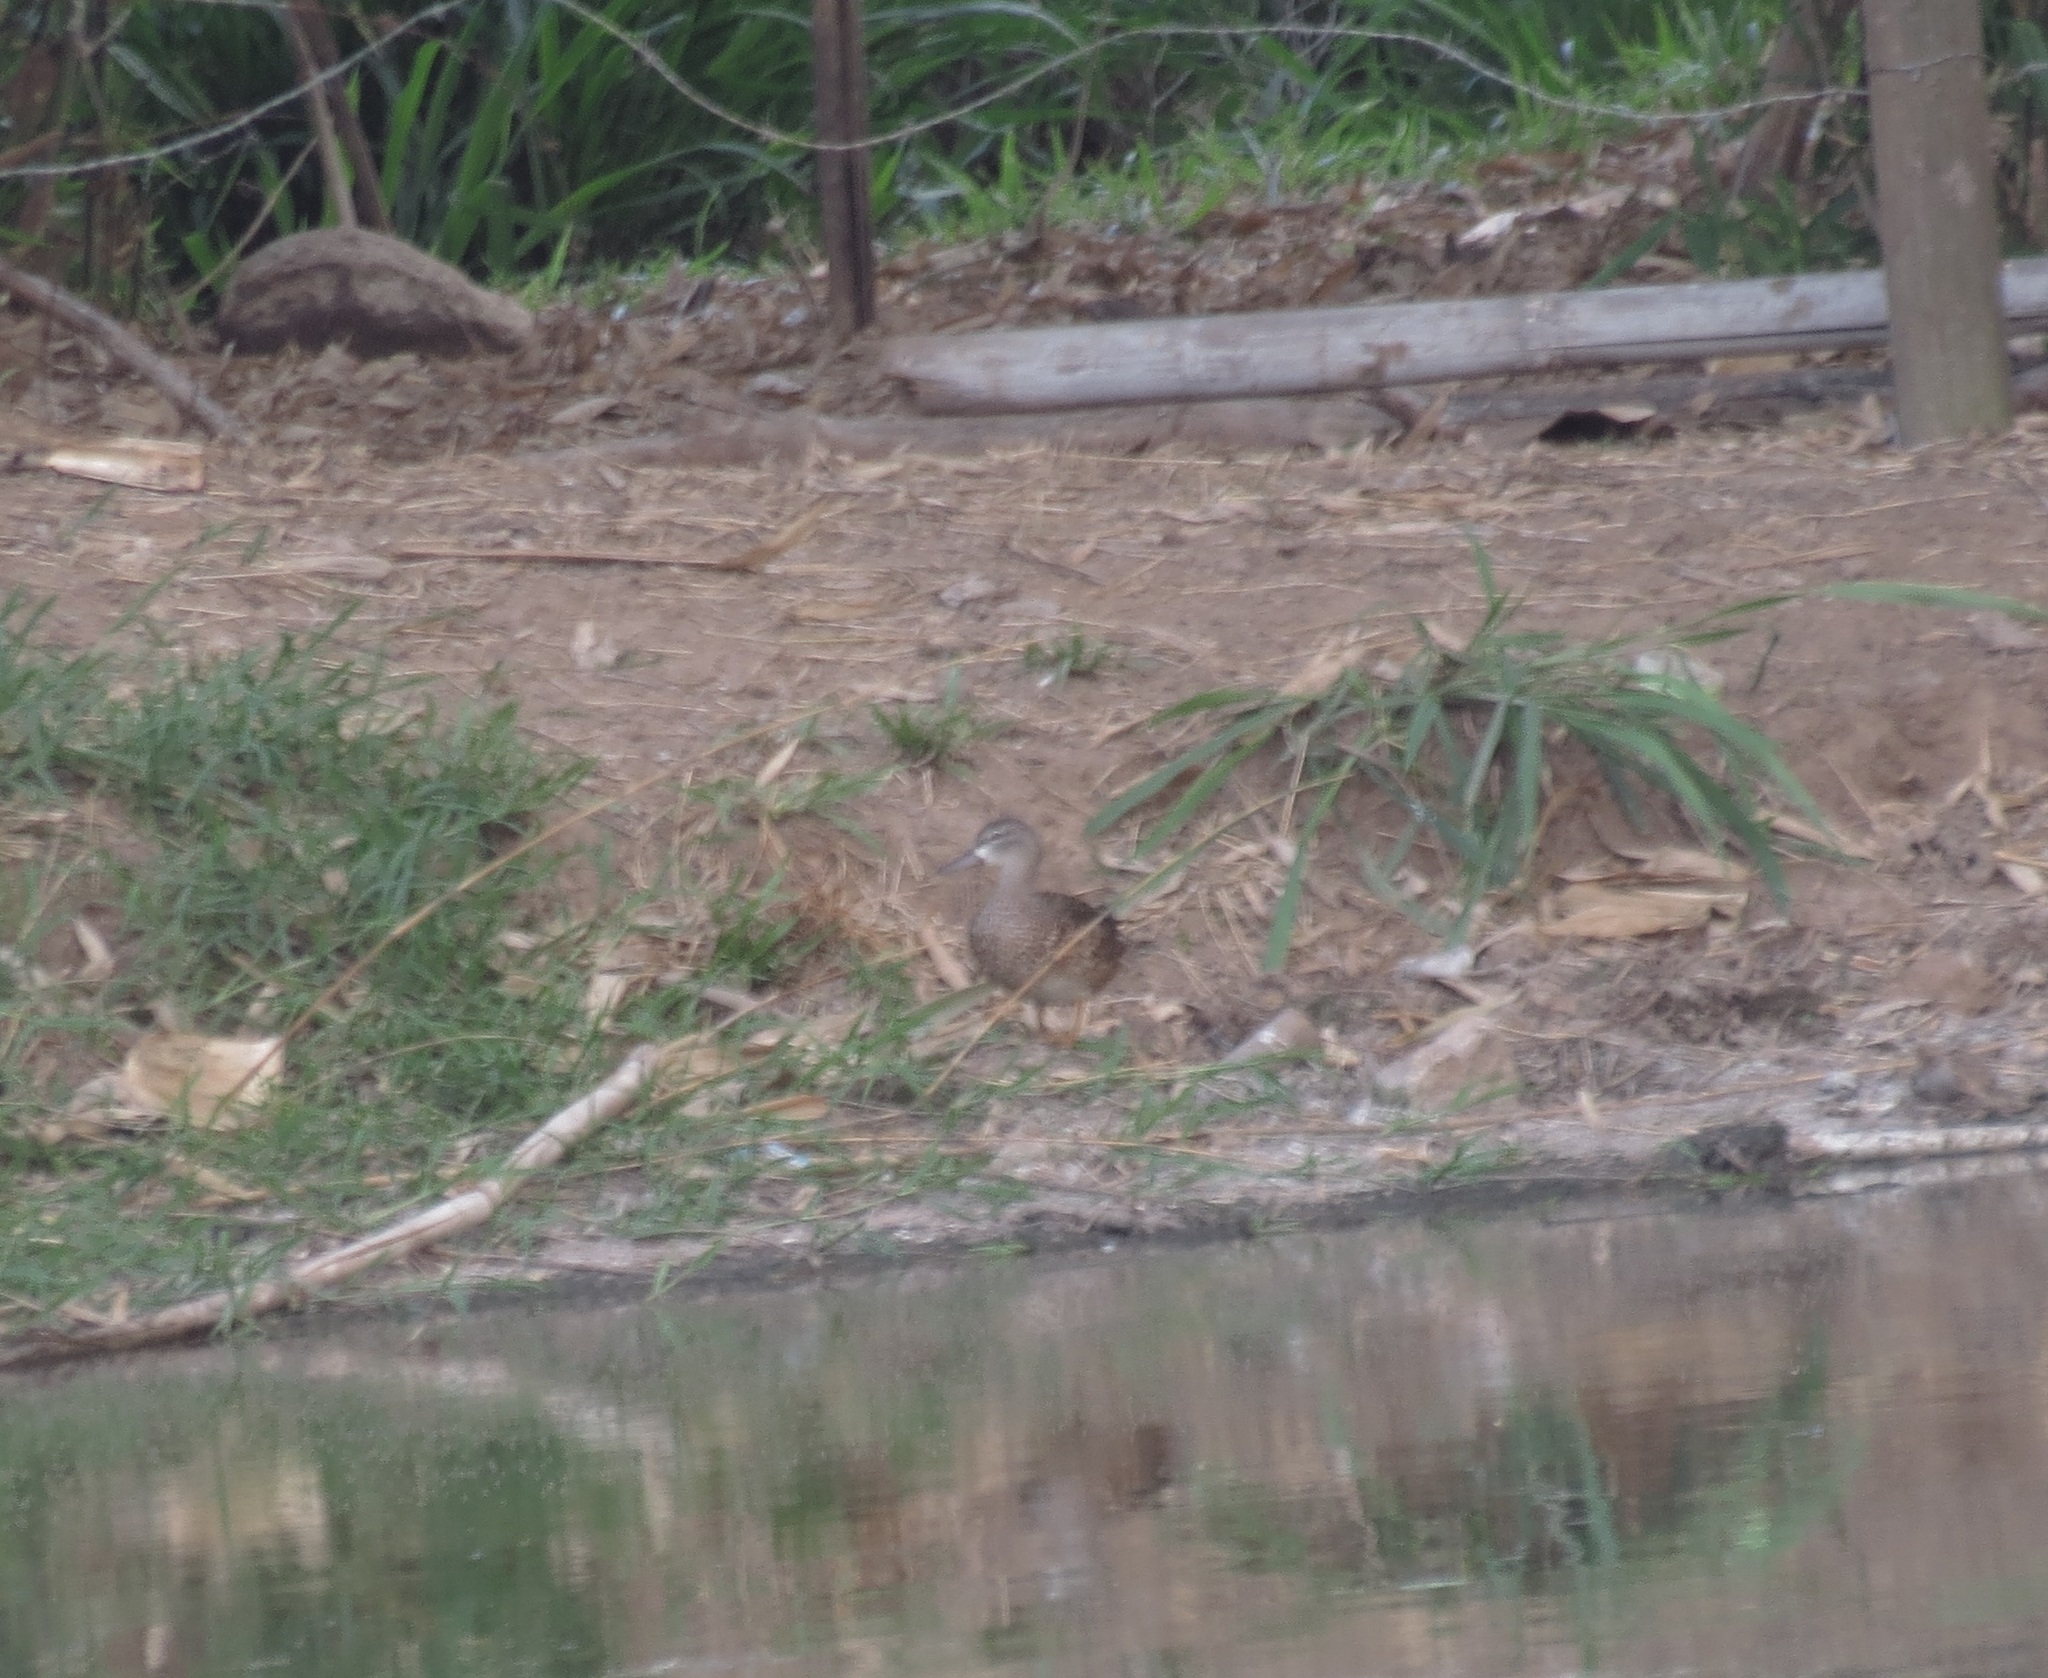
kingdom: Animalia
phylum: Chordata
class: Aves
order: Anseriformes
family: Anatidae
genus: Spatula
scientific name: Spatula discors
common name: Blue-winged teal
